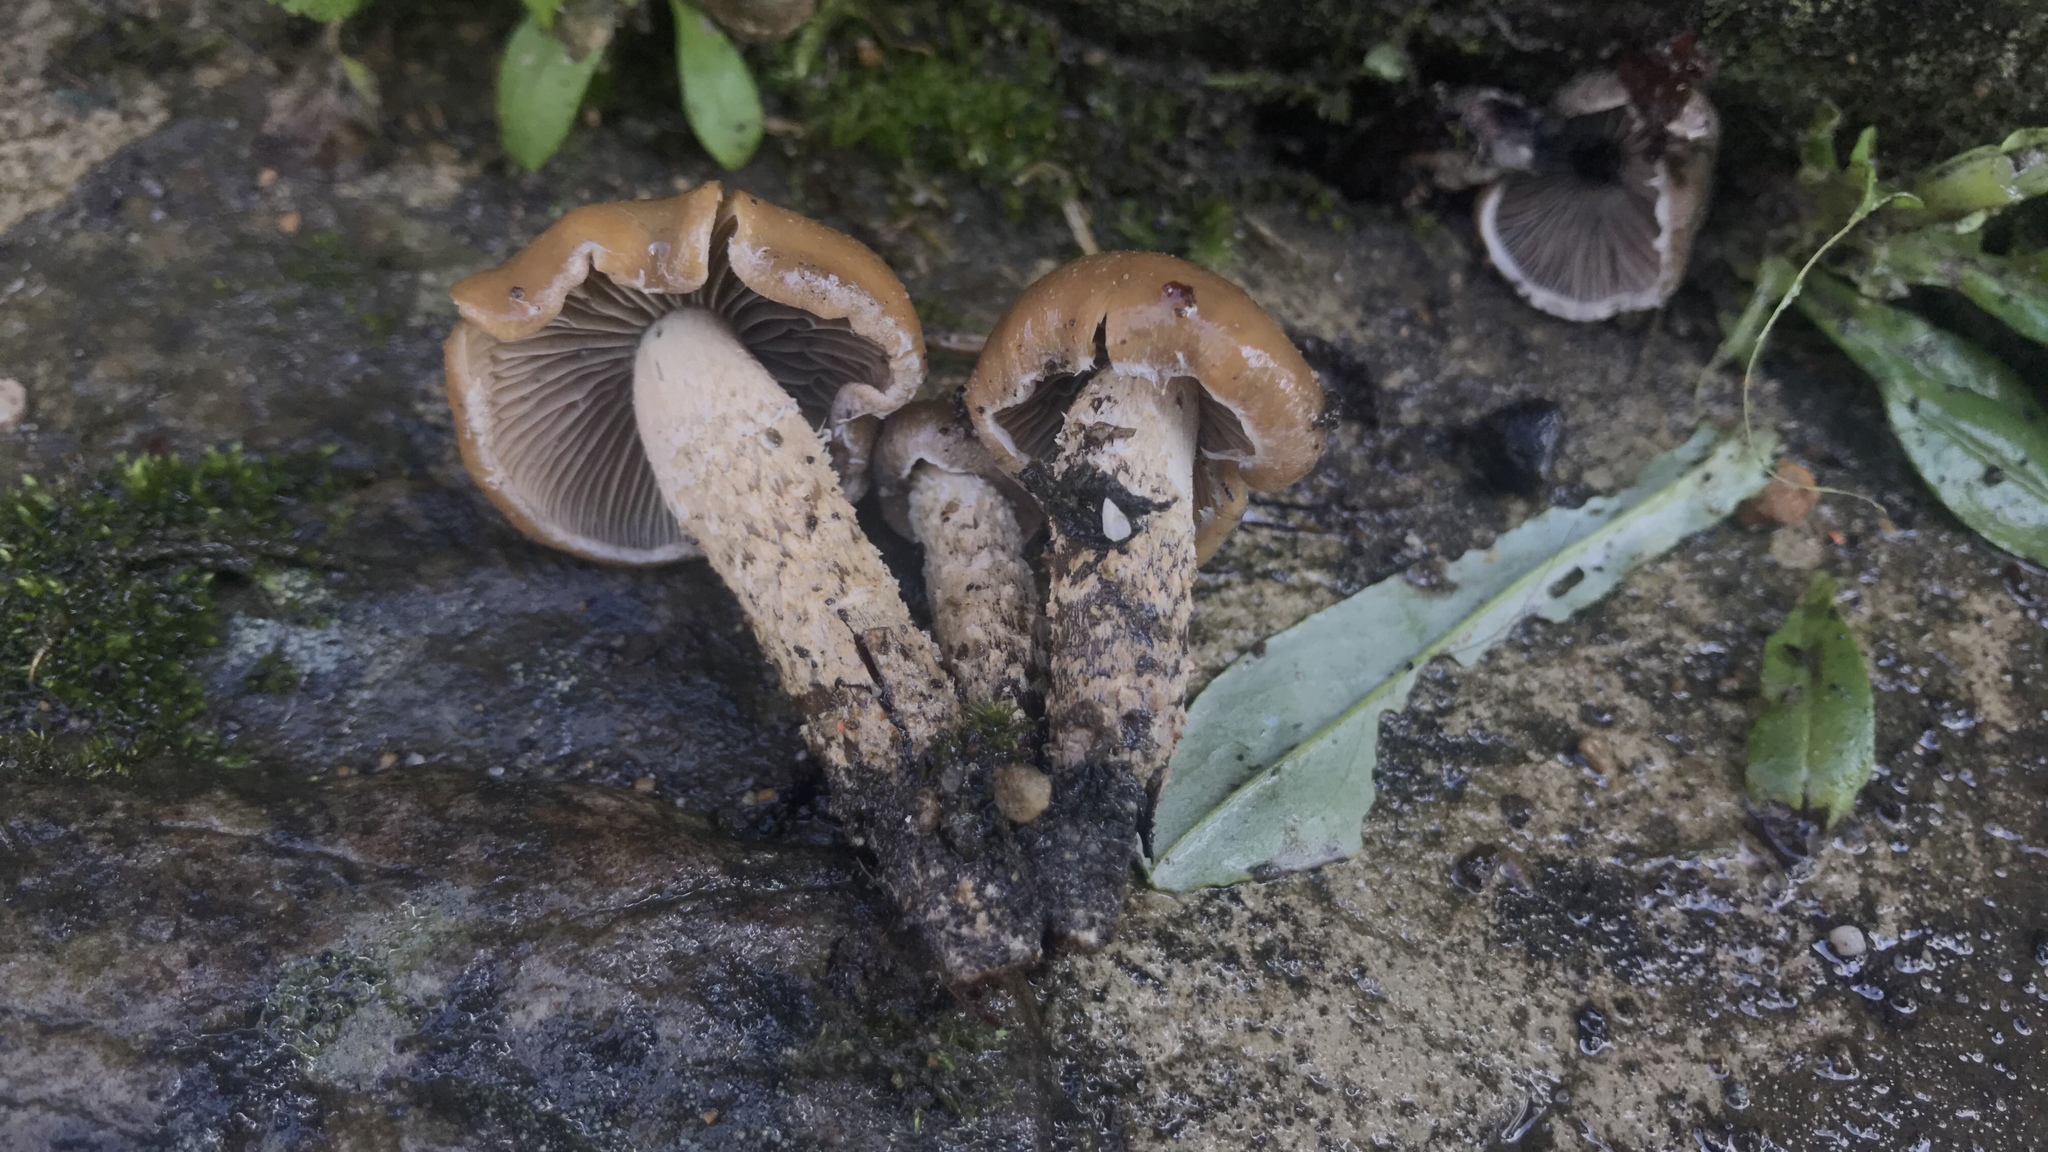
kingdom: Fungi
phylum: Basidiomycota
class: Agaricomycetes
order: Agaricales
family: Hymenogastraceae
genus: Psilocybe
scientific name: Psilocybe zapotecorum
